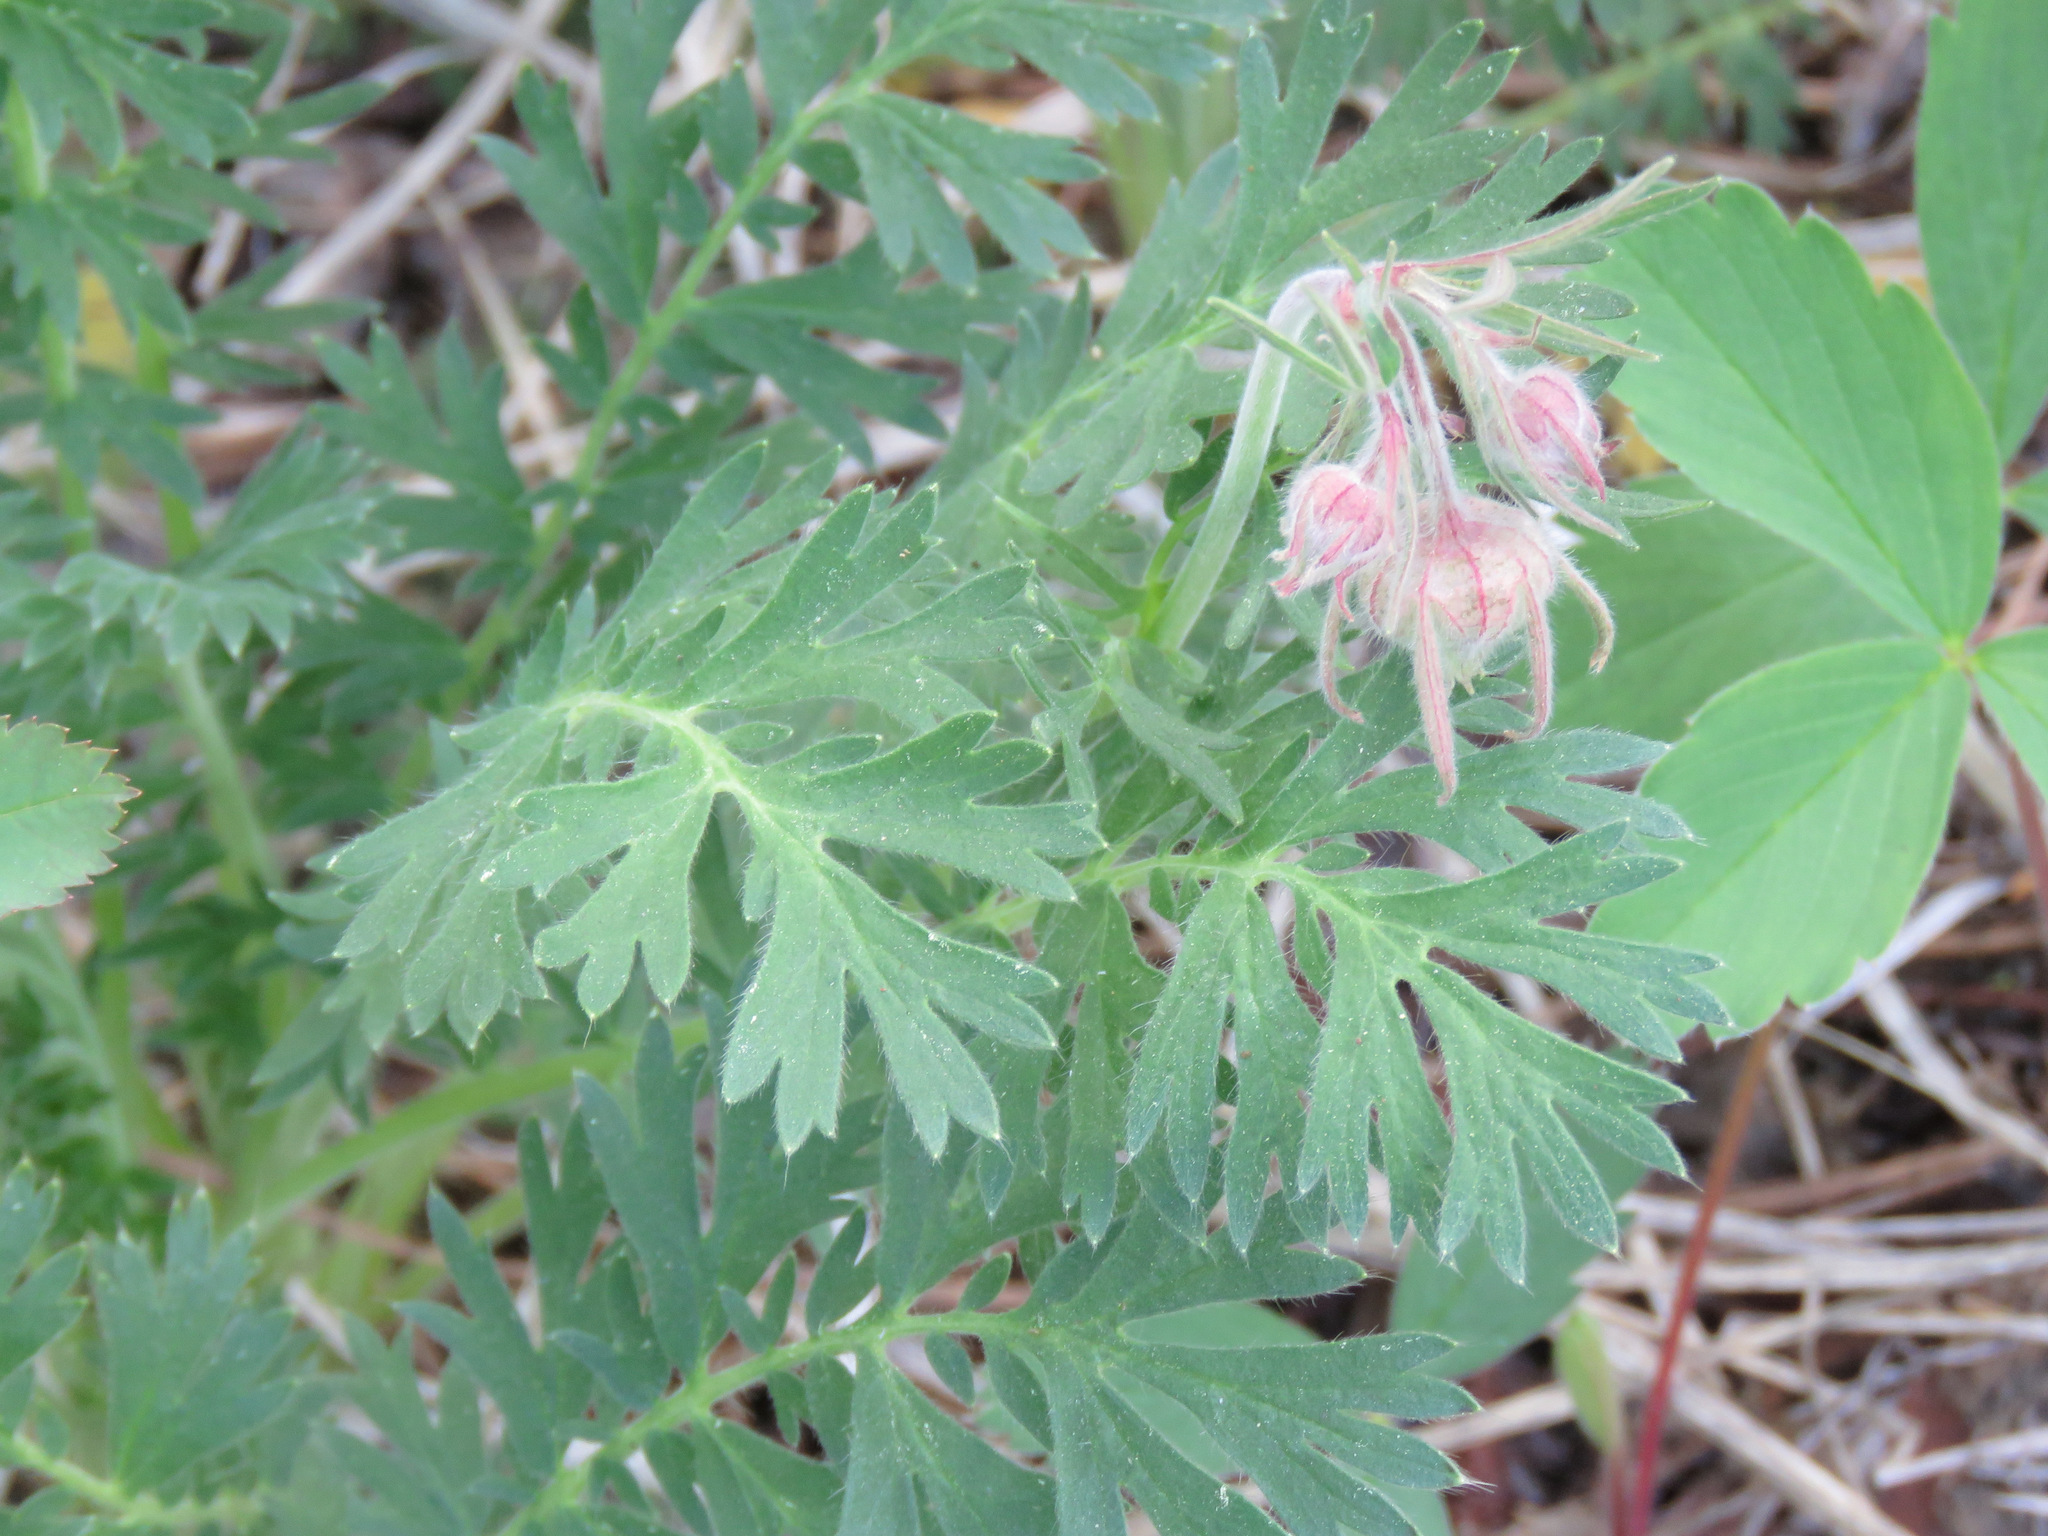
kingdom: Plantae
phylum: Tracheophyta
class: Magnoliopsida
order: Rosales
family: Rosaceae
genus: Geum
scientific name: Geum triflorum
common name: Old man's whiskers
